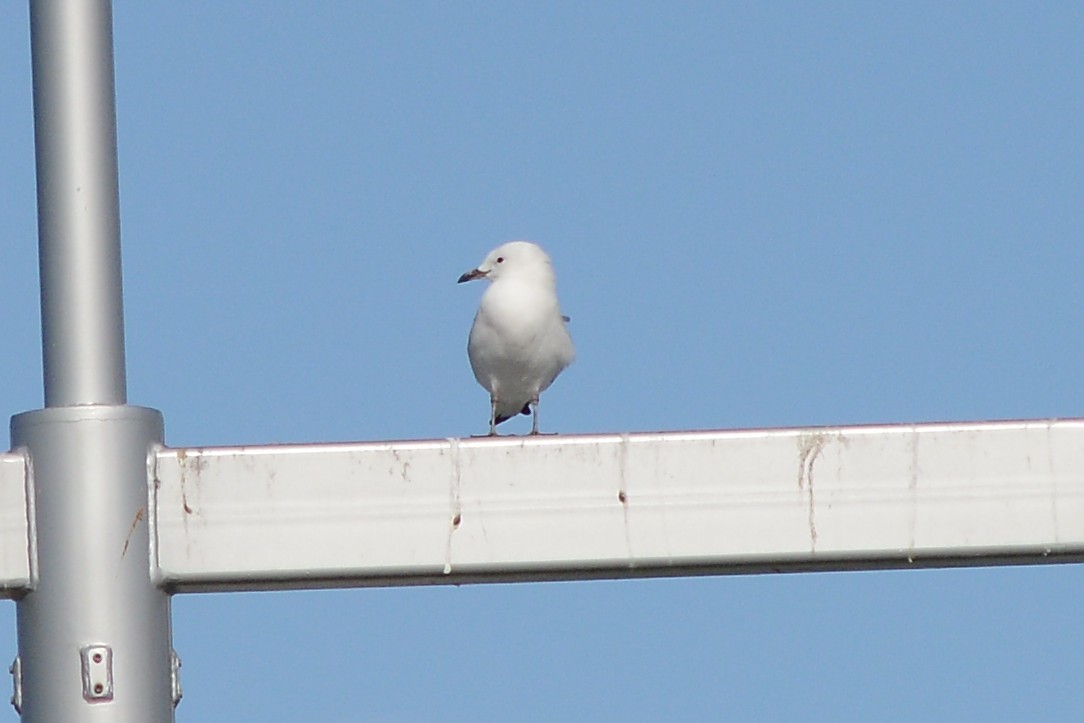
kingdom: Animalia
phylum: Chordata
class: Aves
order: Charadriiformes
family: Laridae
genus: Chroicocephalus
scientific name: Chroicocephalus novaehollandiae
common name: Silver gull
